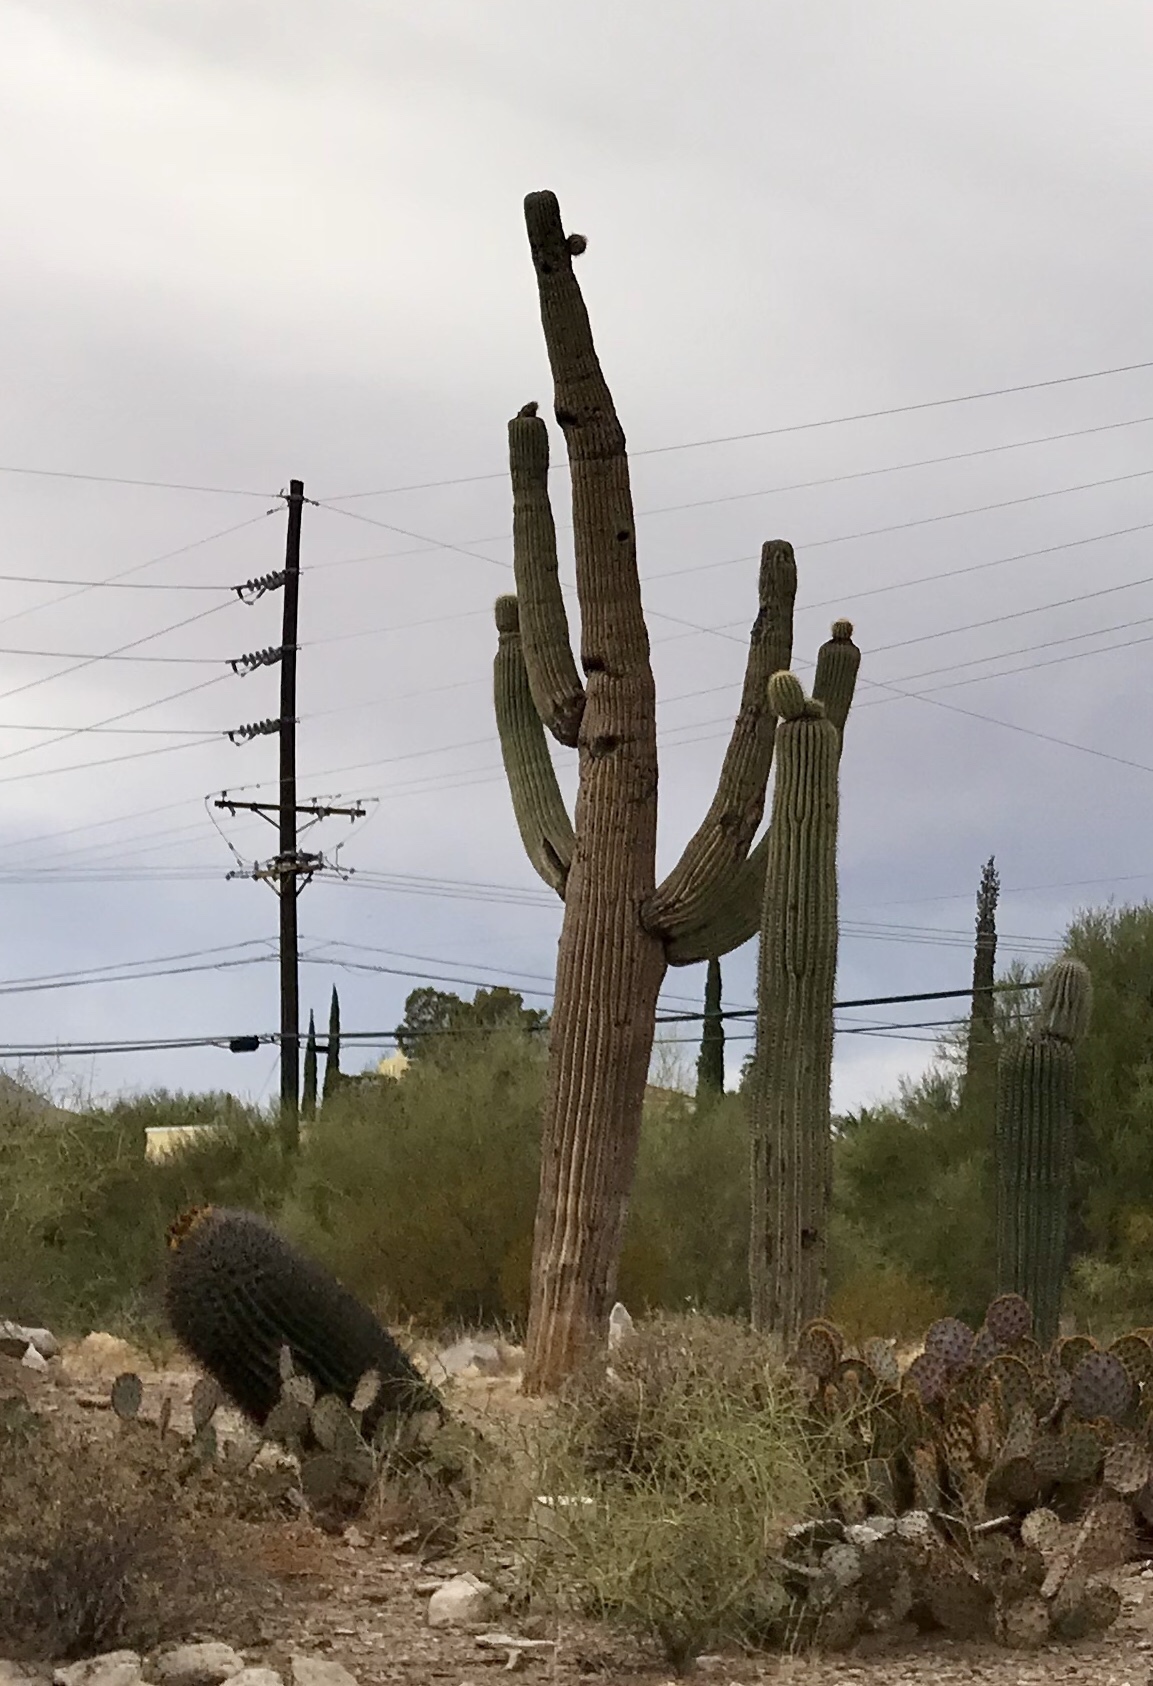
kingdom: Plantae
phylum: Tracheophyta
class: Magnoliopsida
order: Caryophyllales
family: Cactaceae
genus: Carnegiea
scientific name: Carnegiea gigantea
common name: Saguaro
